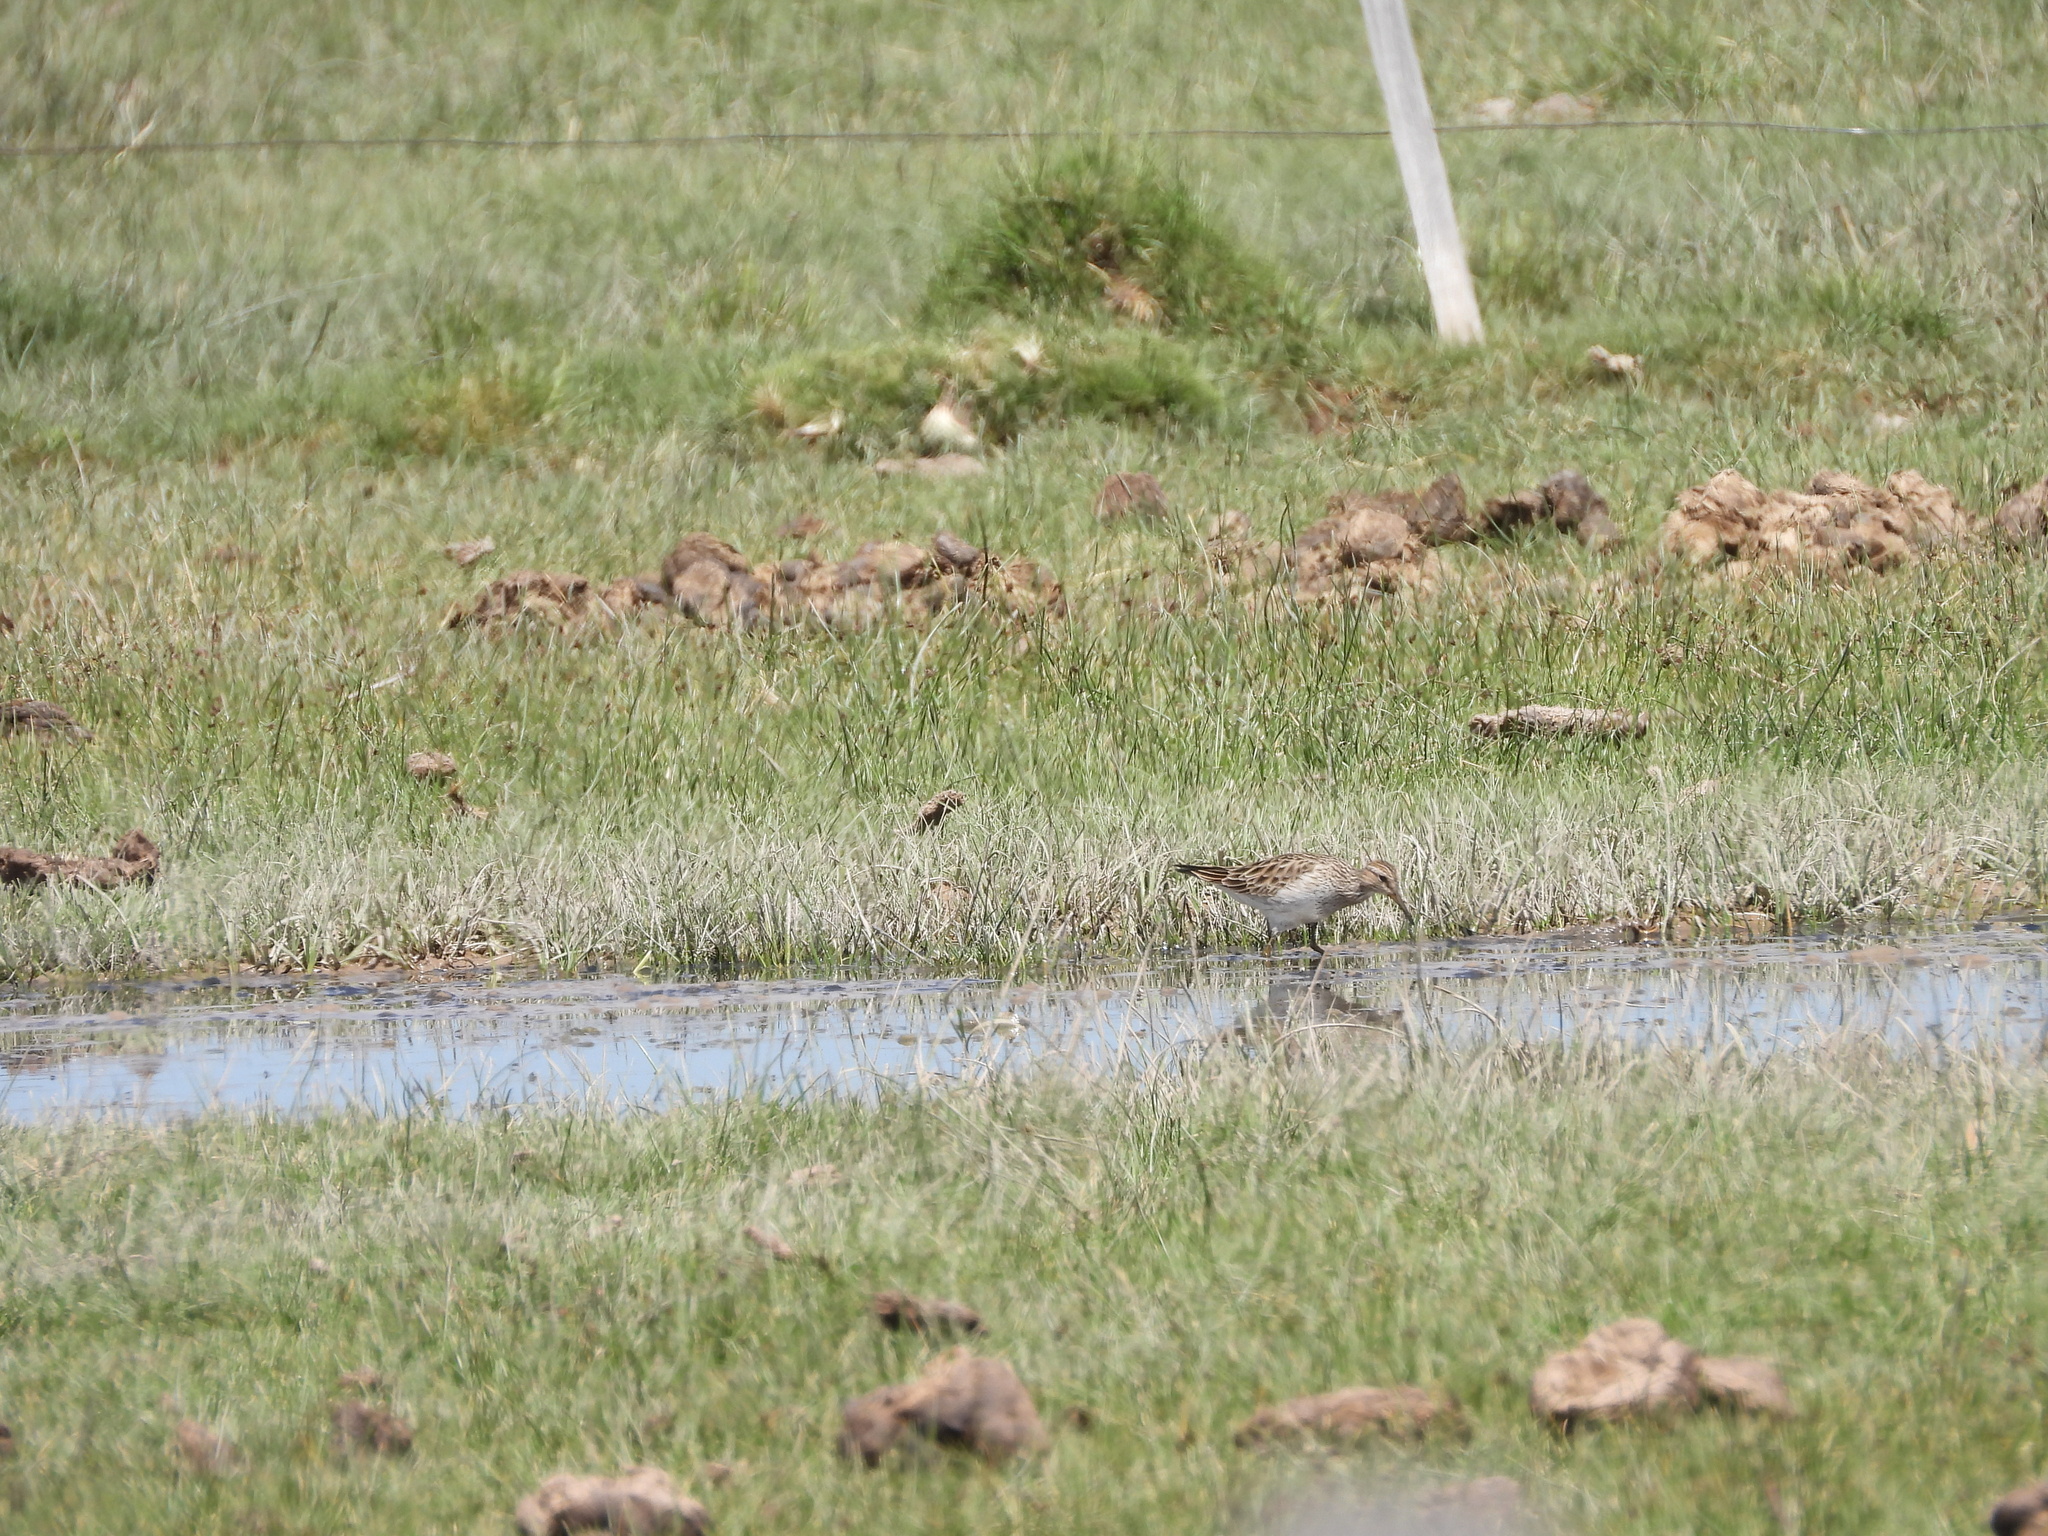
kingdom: Animalia
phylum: Chordata
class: Aves
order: Charadriiformes
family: Scolopacidae
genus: Calidris
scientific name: Calidris melanotos
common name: Pectoral sandpiper
